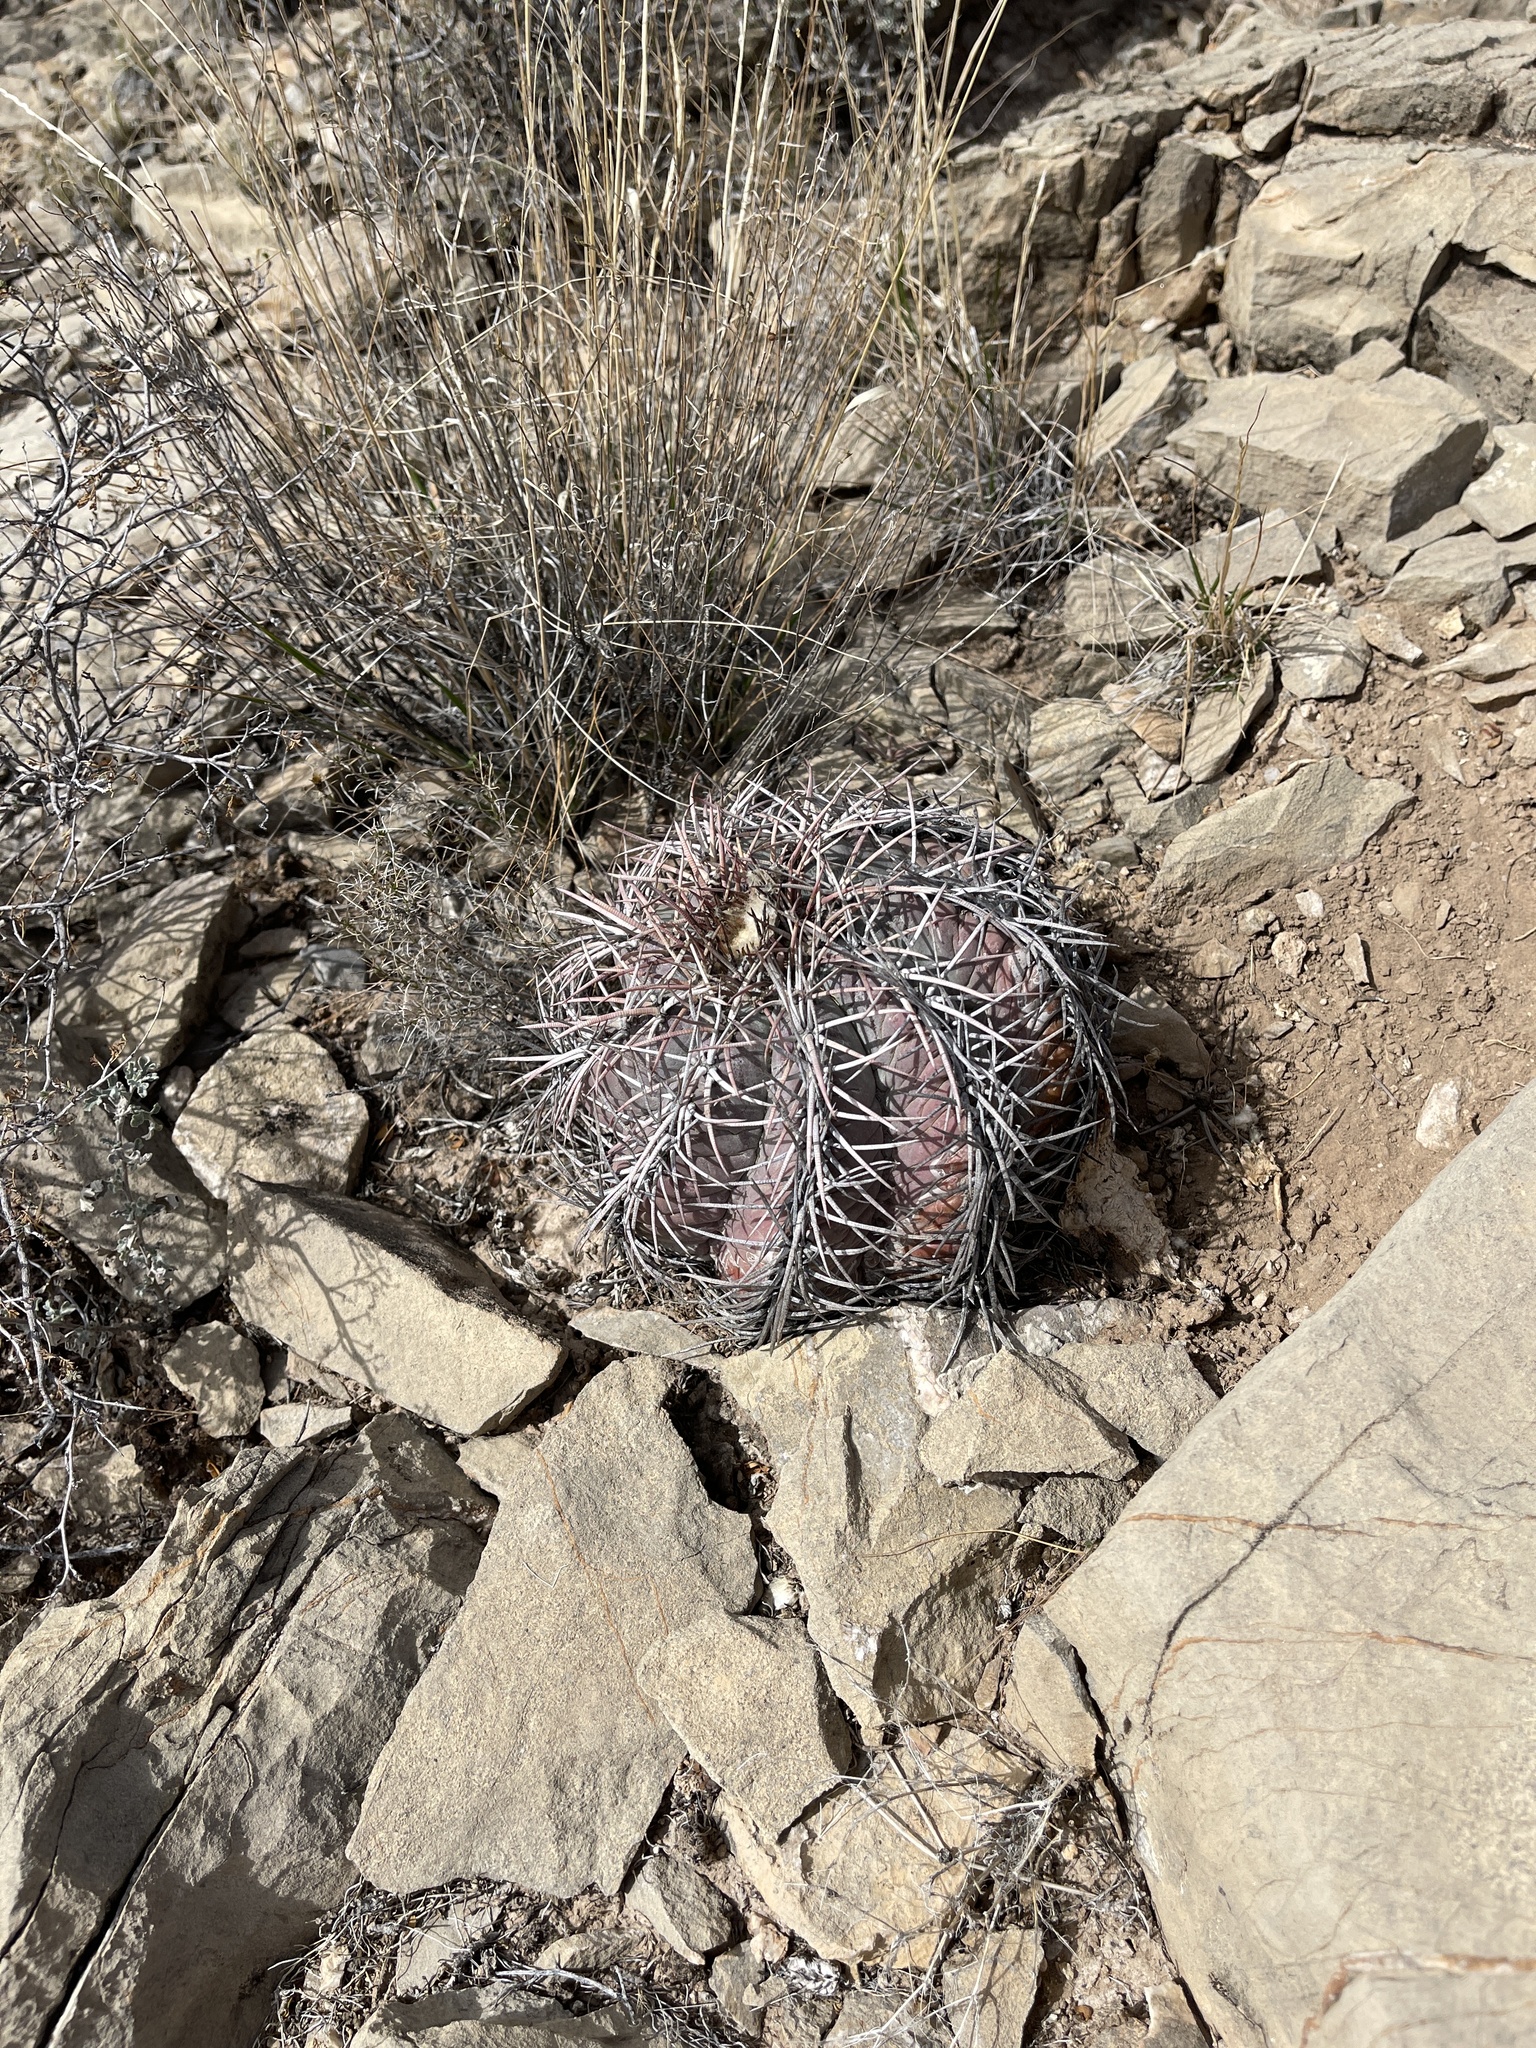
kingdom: Plantae
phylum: Tracheophyta
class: Magnoliopsida
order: Caryophyllales
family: Cactaceae
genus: Echinocactus
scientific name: Echinocactus horizonthalonius
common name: Devilshead
